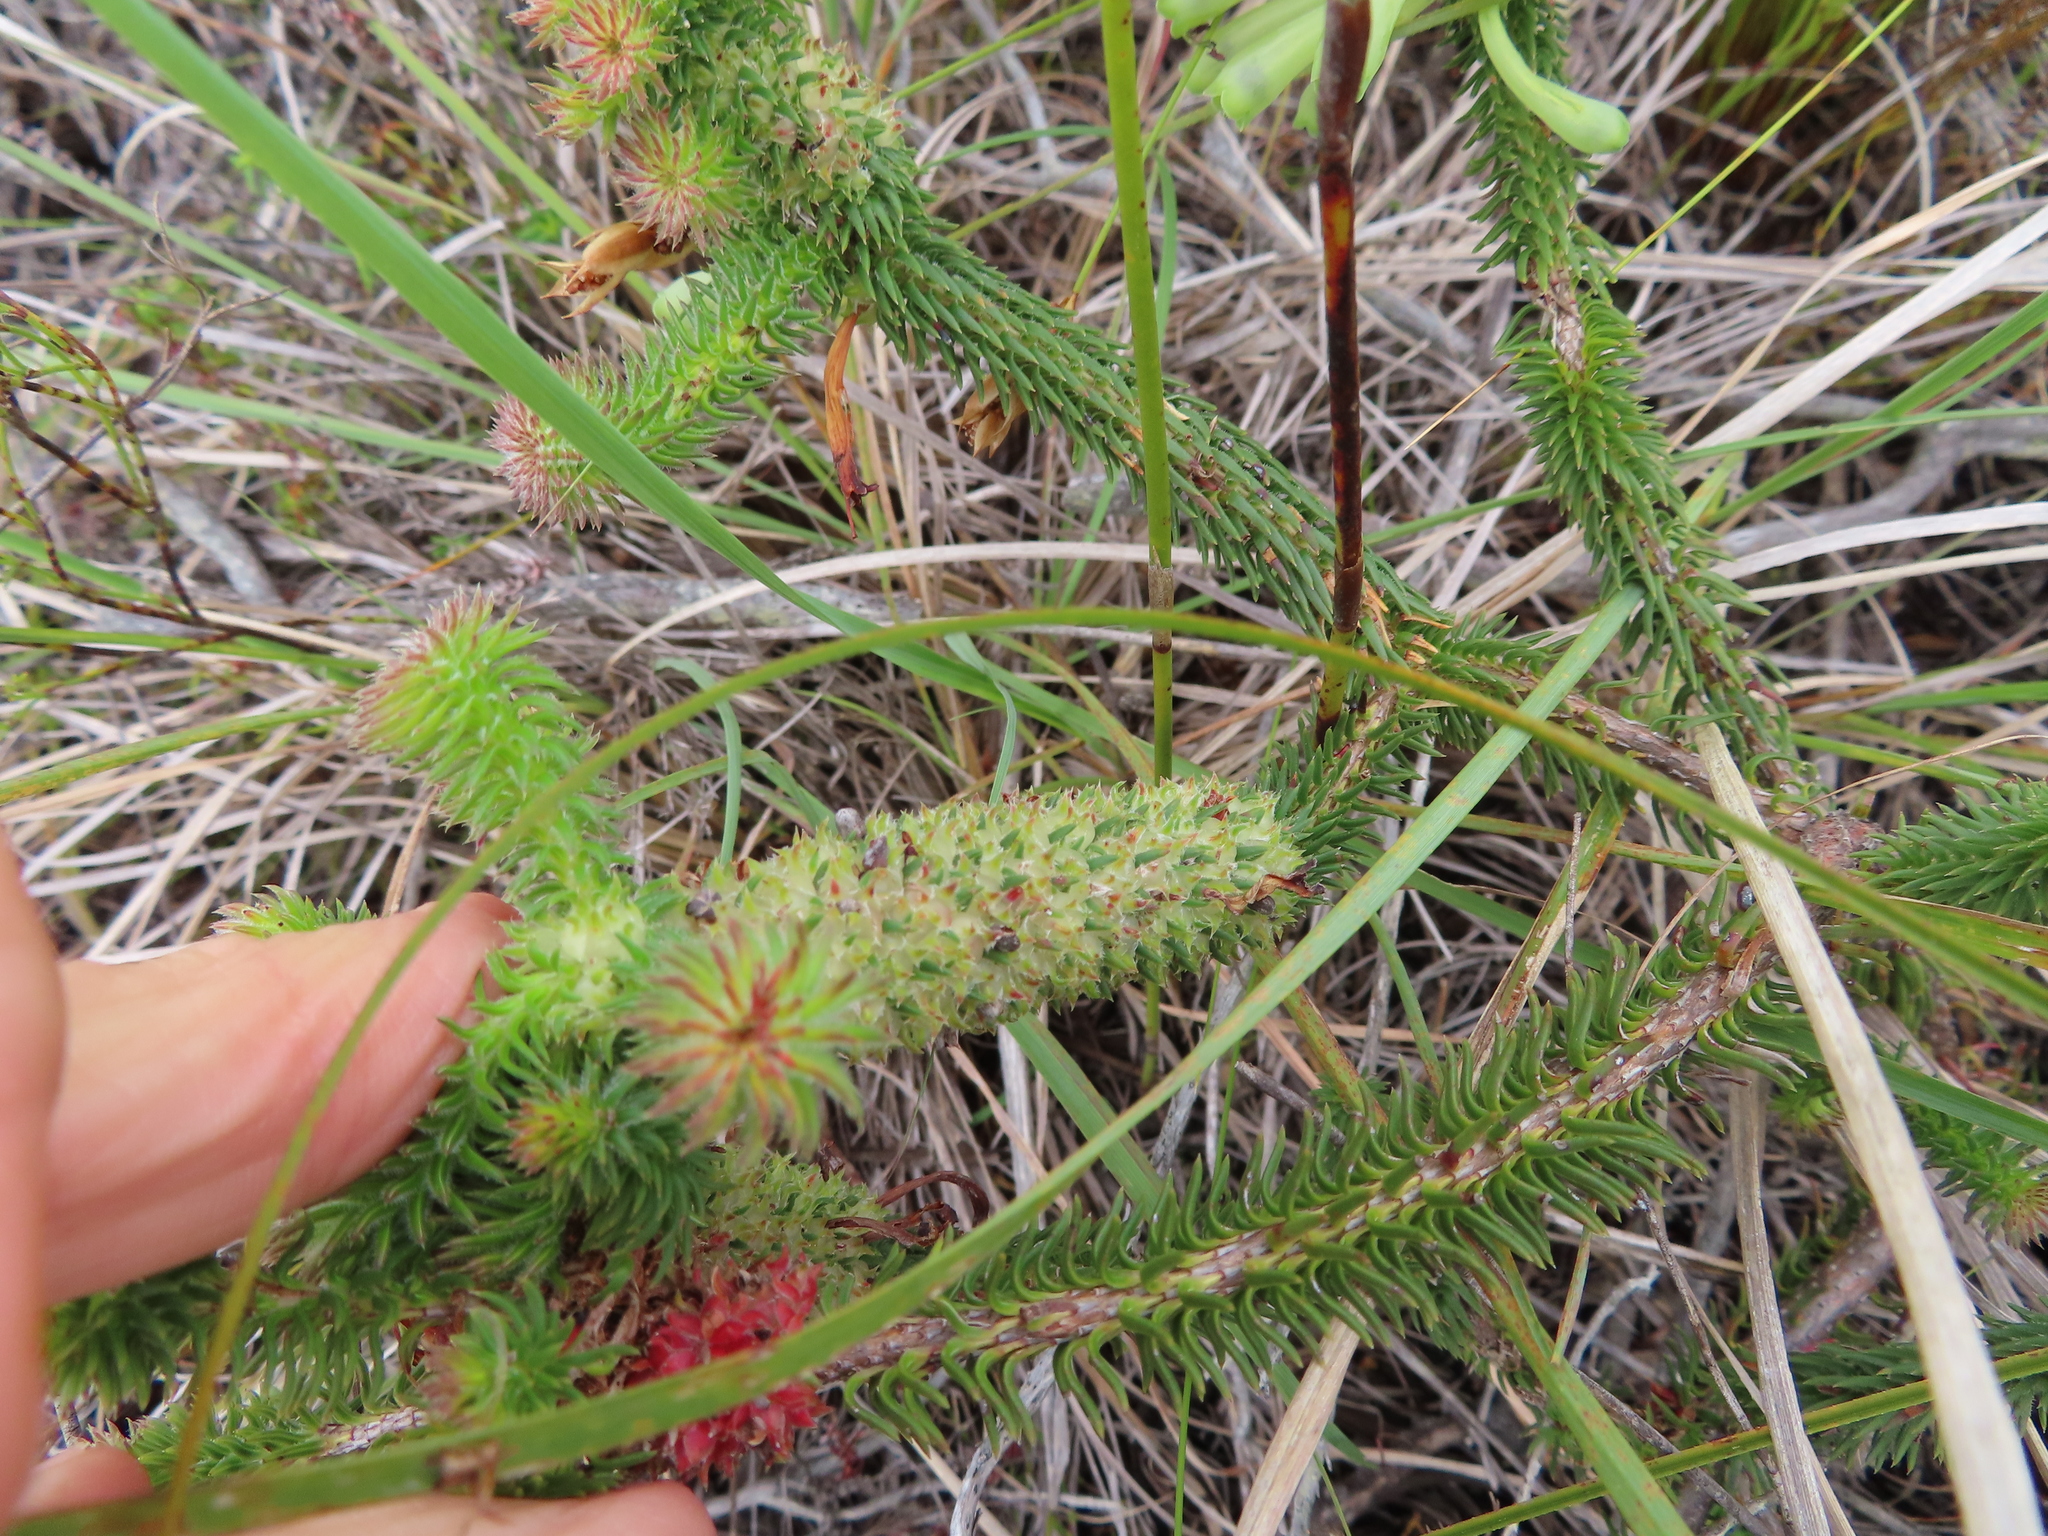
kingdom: Plantae
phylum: Tracheophyta
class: Magnoliopsida
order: Ericales
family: Ericaceae
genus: Erica
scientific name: Erica sessiliflora
